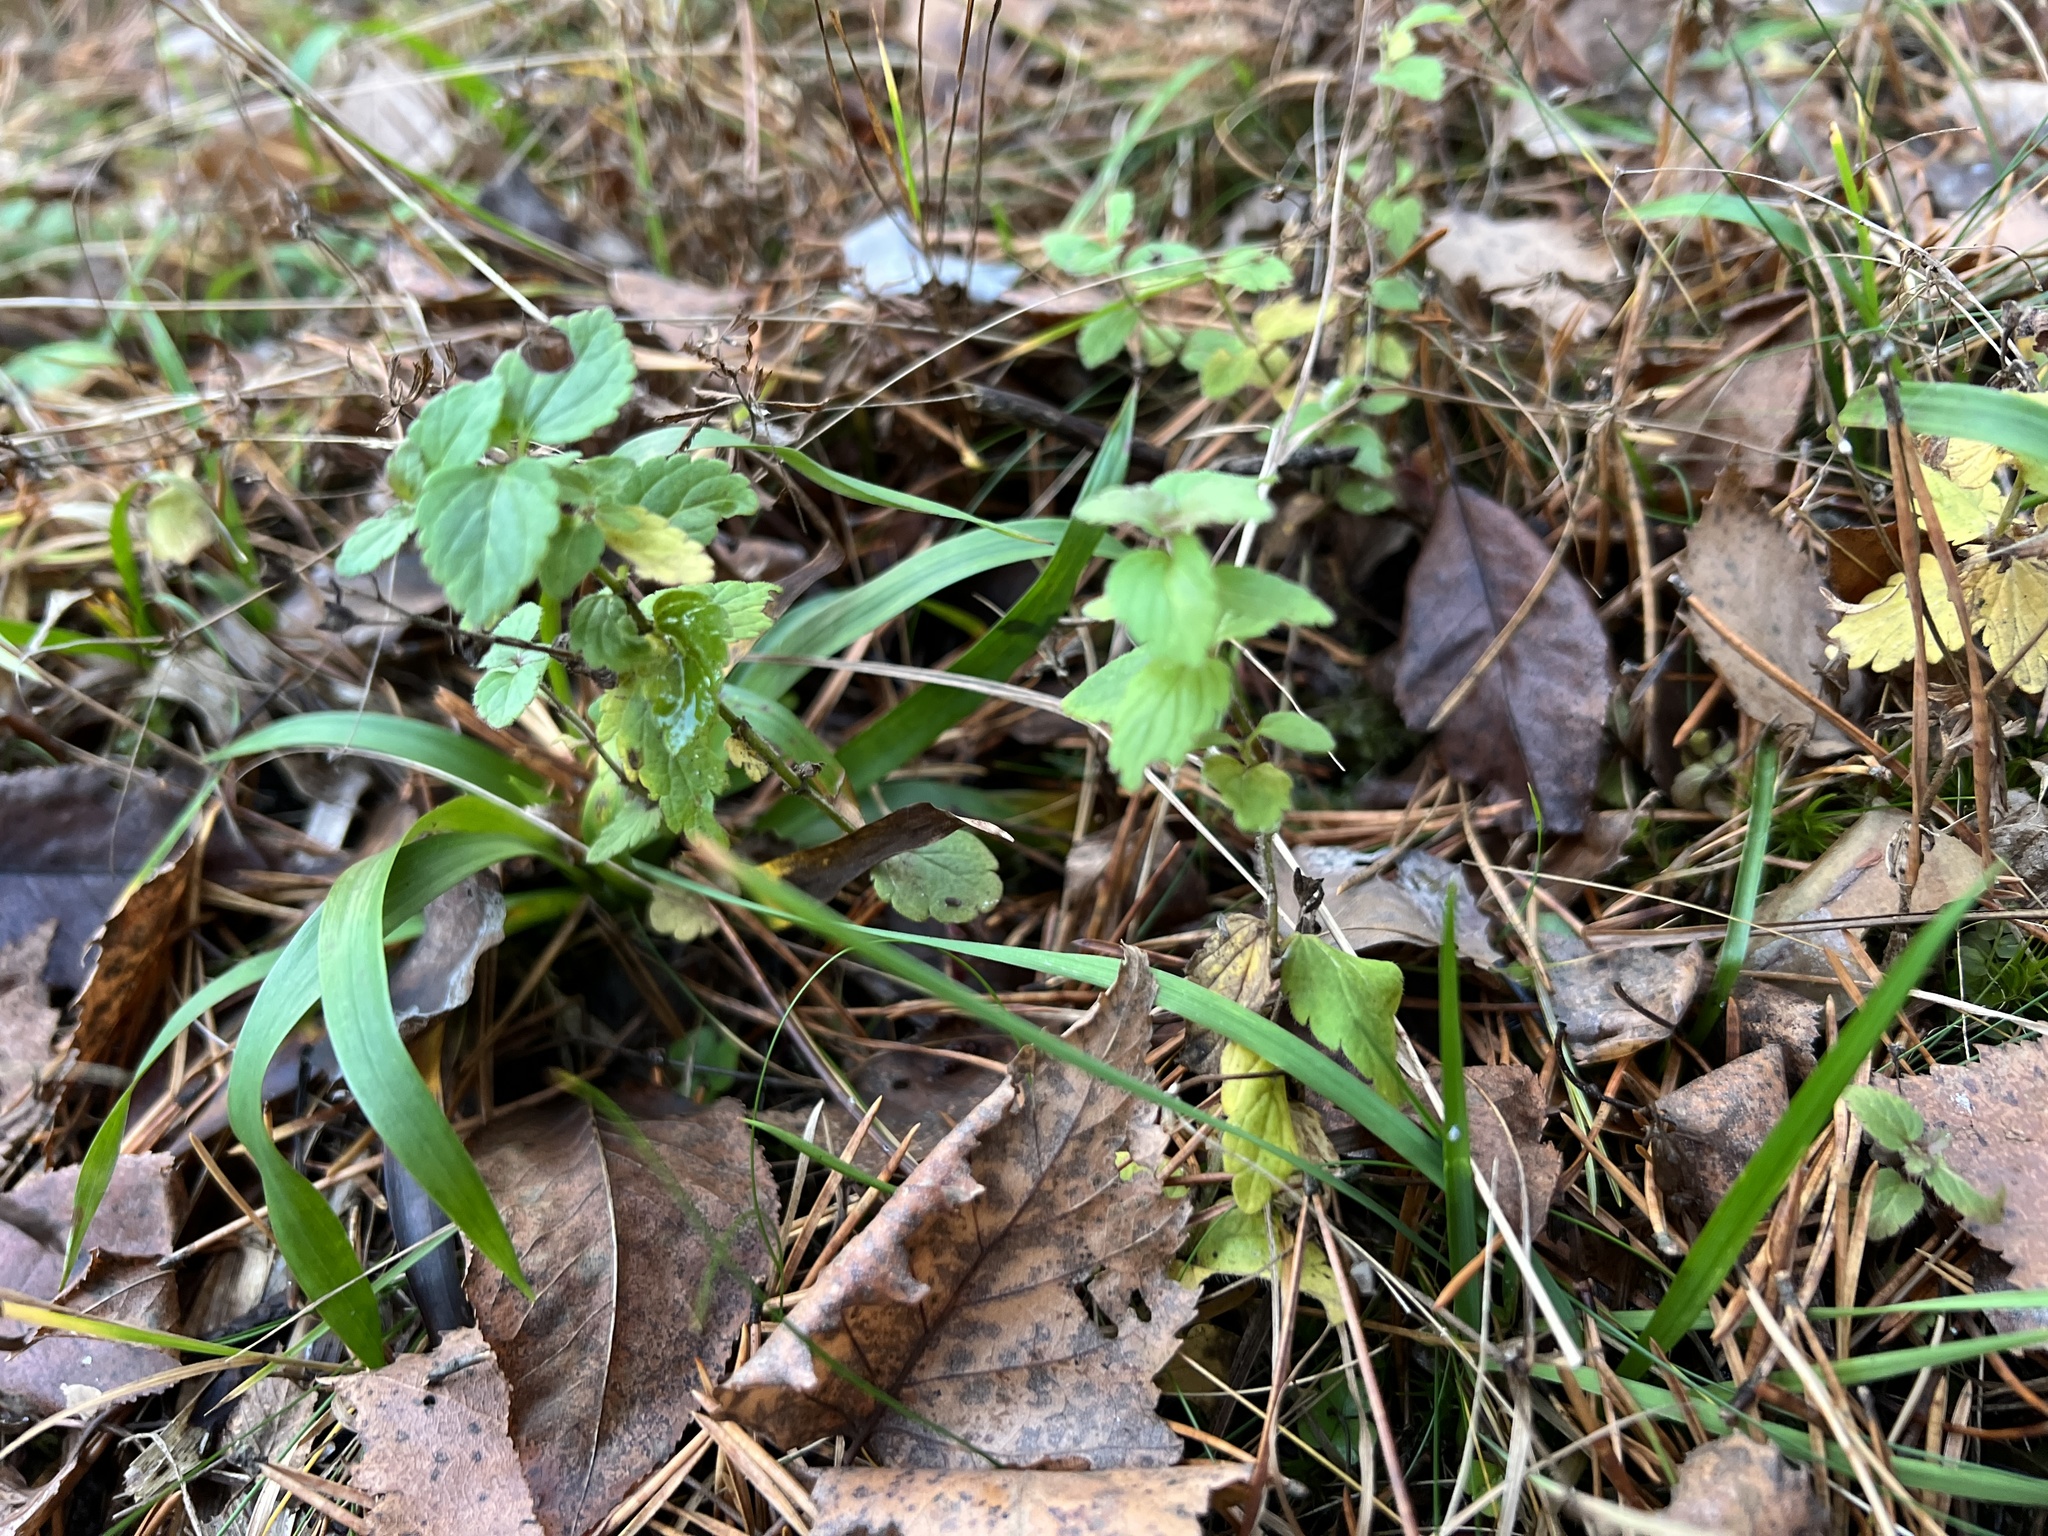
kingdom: Plantae
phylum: Tracheophyta
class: Magnoliopsida
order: Lamiales
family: Plantaginaceae
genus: Veronica
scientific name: Veronica chamaedrys
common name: Germander speedwell
